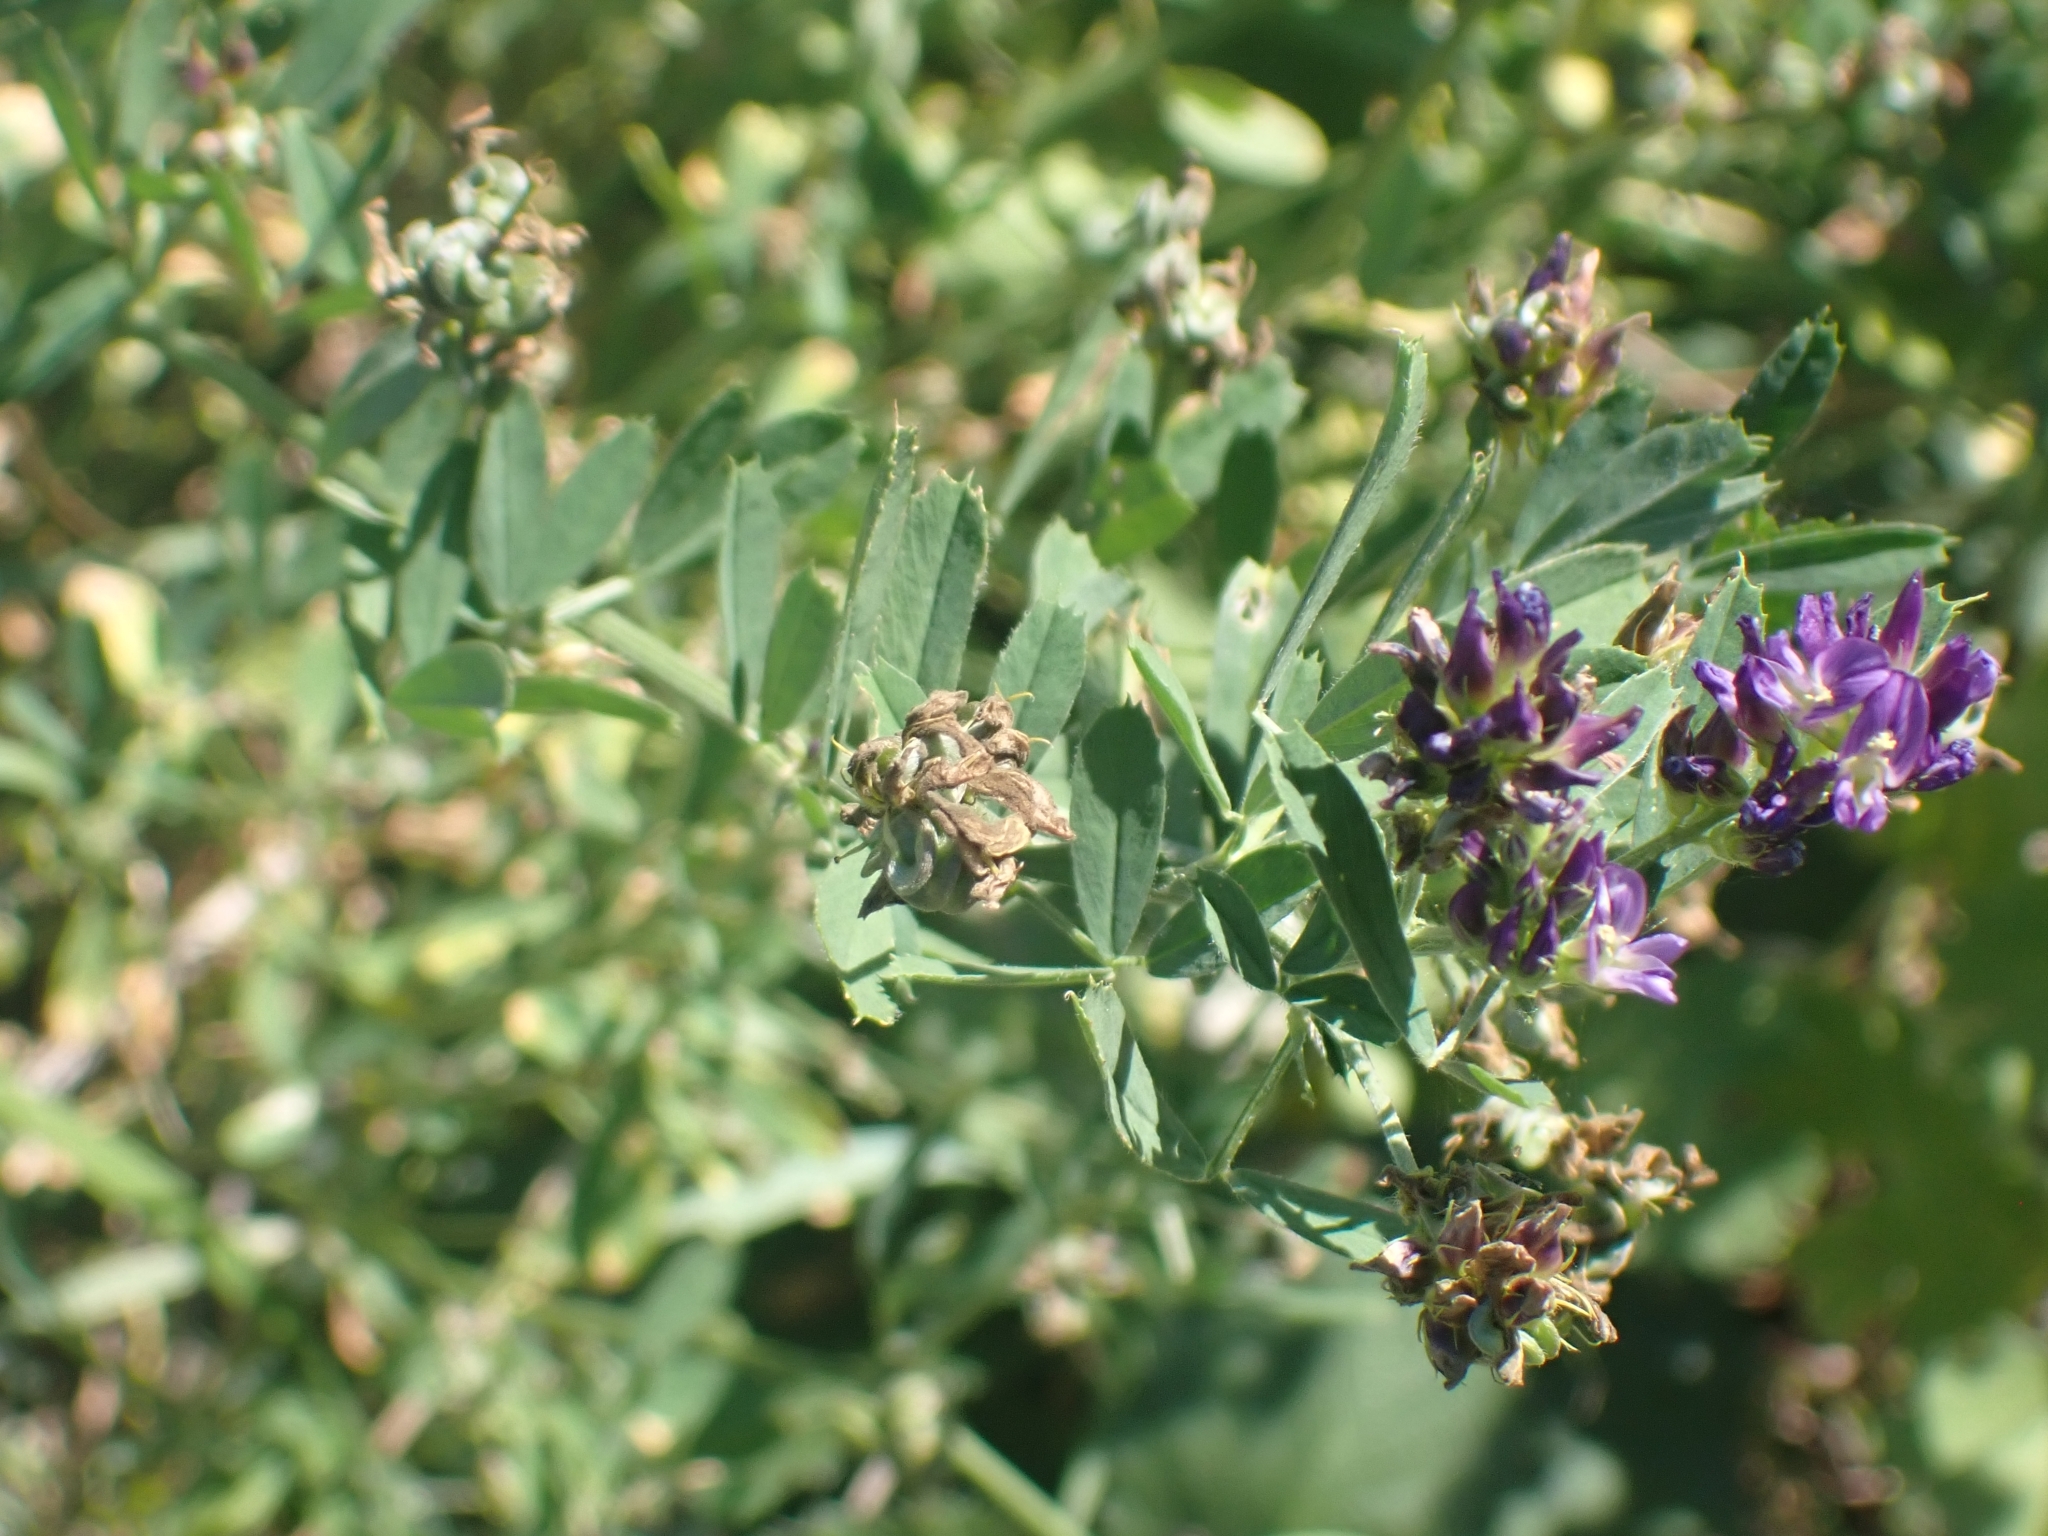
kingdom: Plantae
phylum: Tracheophyta
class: Magnoliopsida
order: Fabales
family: Fabaceae
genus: Medicago
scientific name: Medicago sativa
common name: Alfalfa
